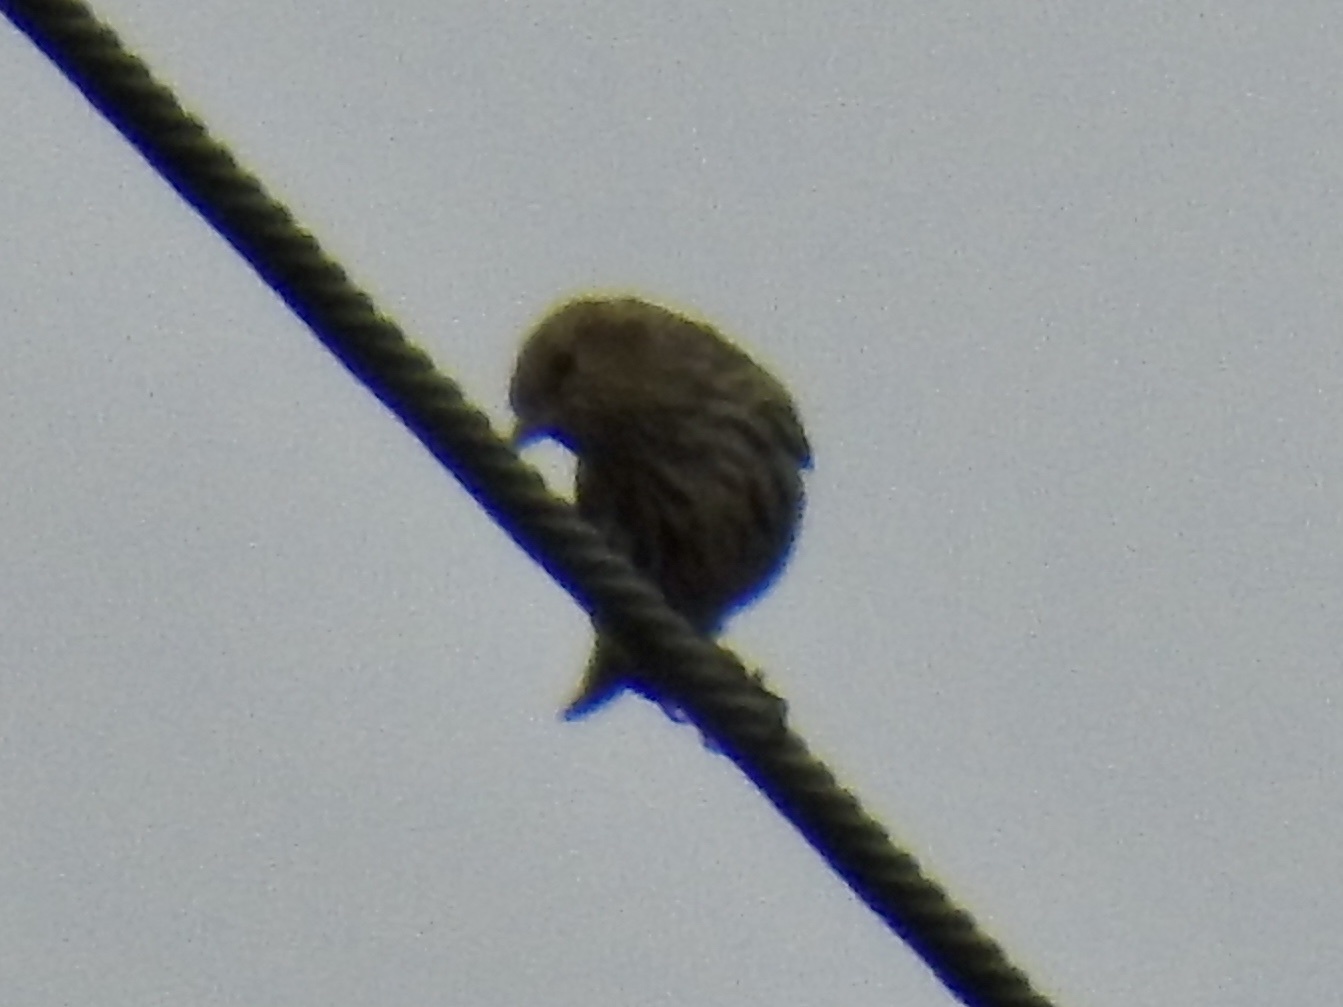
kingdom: Animalia
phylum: Chordata
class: Aves
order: Passeriformes
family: Fringillidae
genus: Spinus
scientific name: Spinus pinus
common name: Pine siskin
